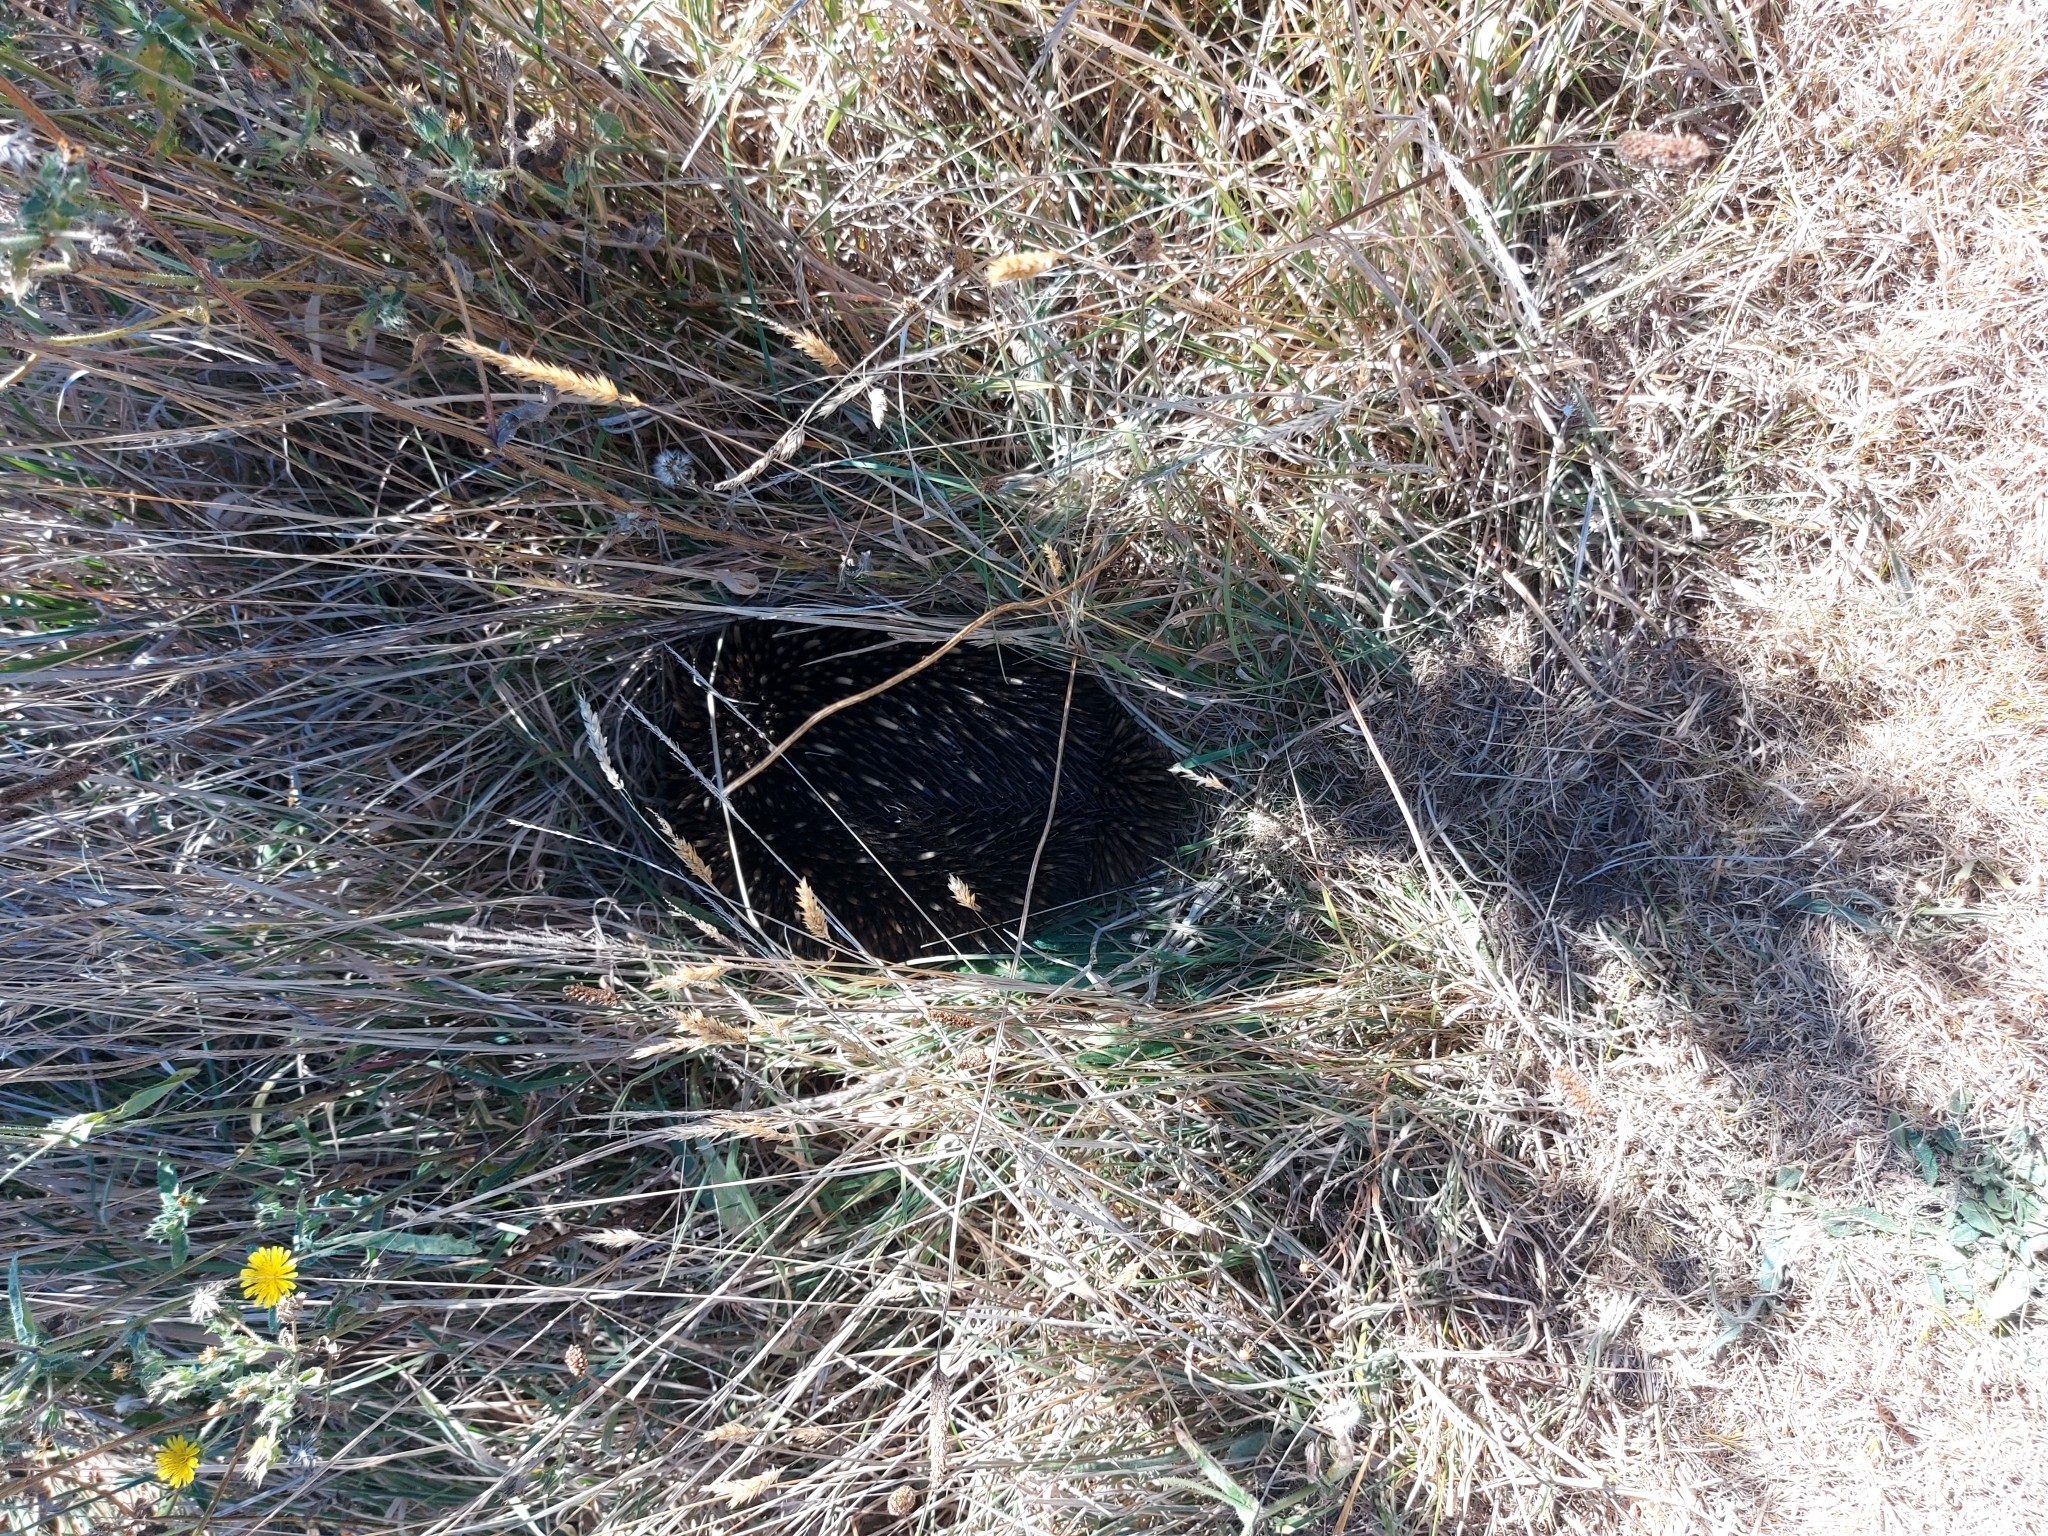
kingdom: Animalia
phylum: Chordata
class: Mammalia
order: Monotremata
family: Tachyglossidae
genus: Tachyglossus
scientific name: Tachyglossus aculeatus
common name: Short-beaked echidna
